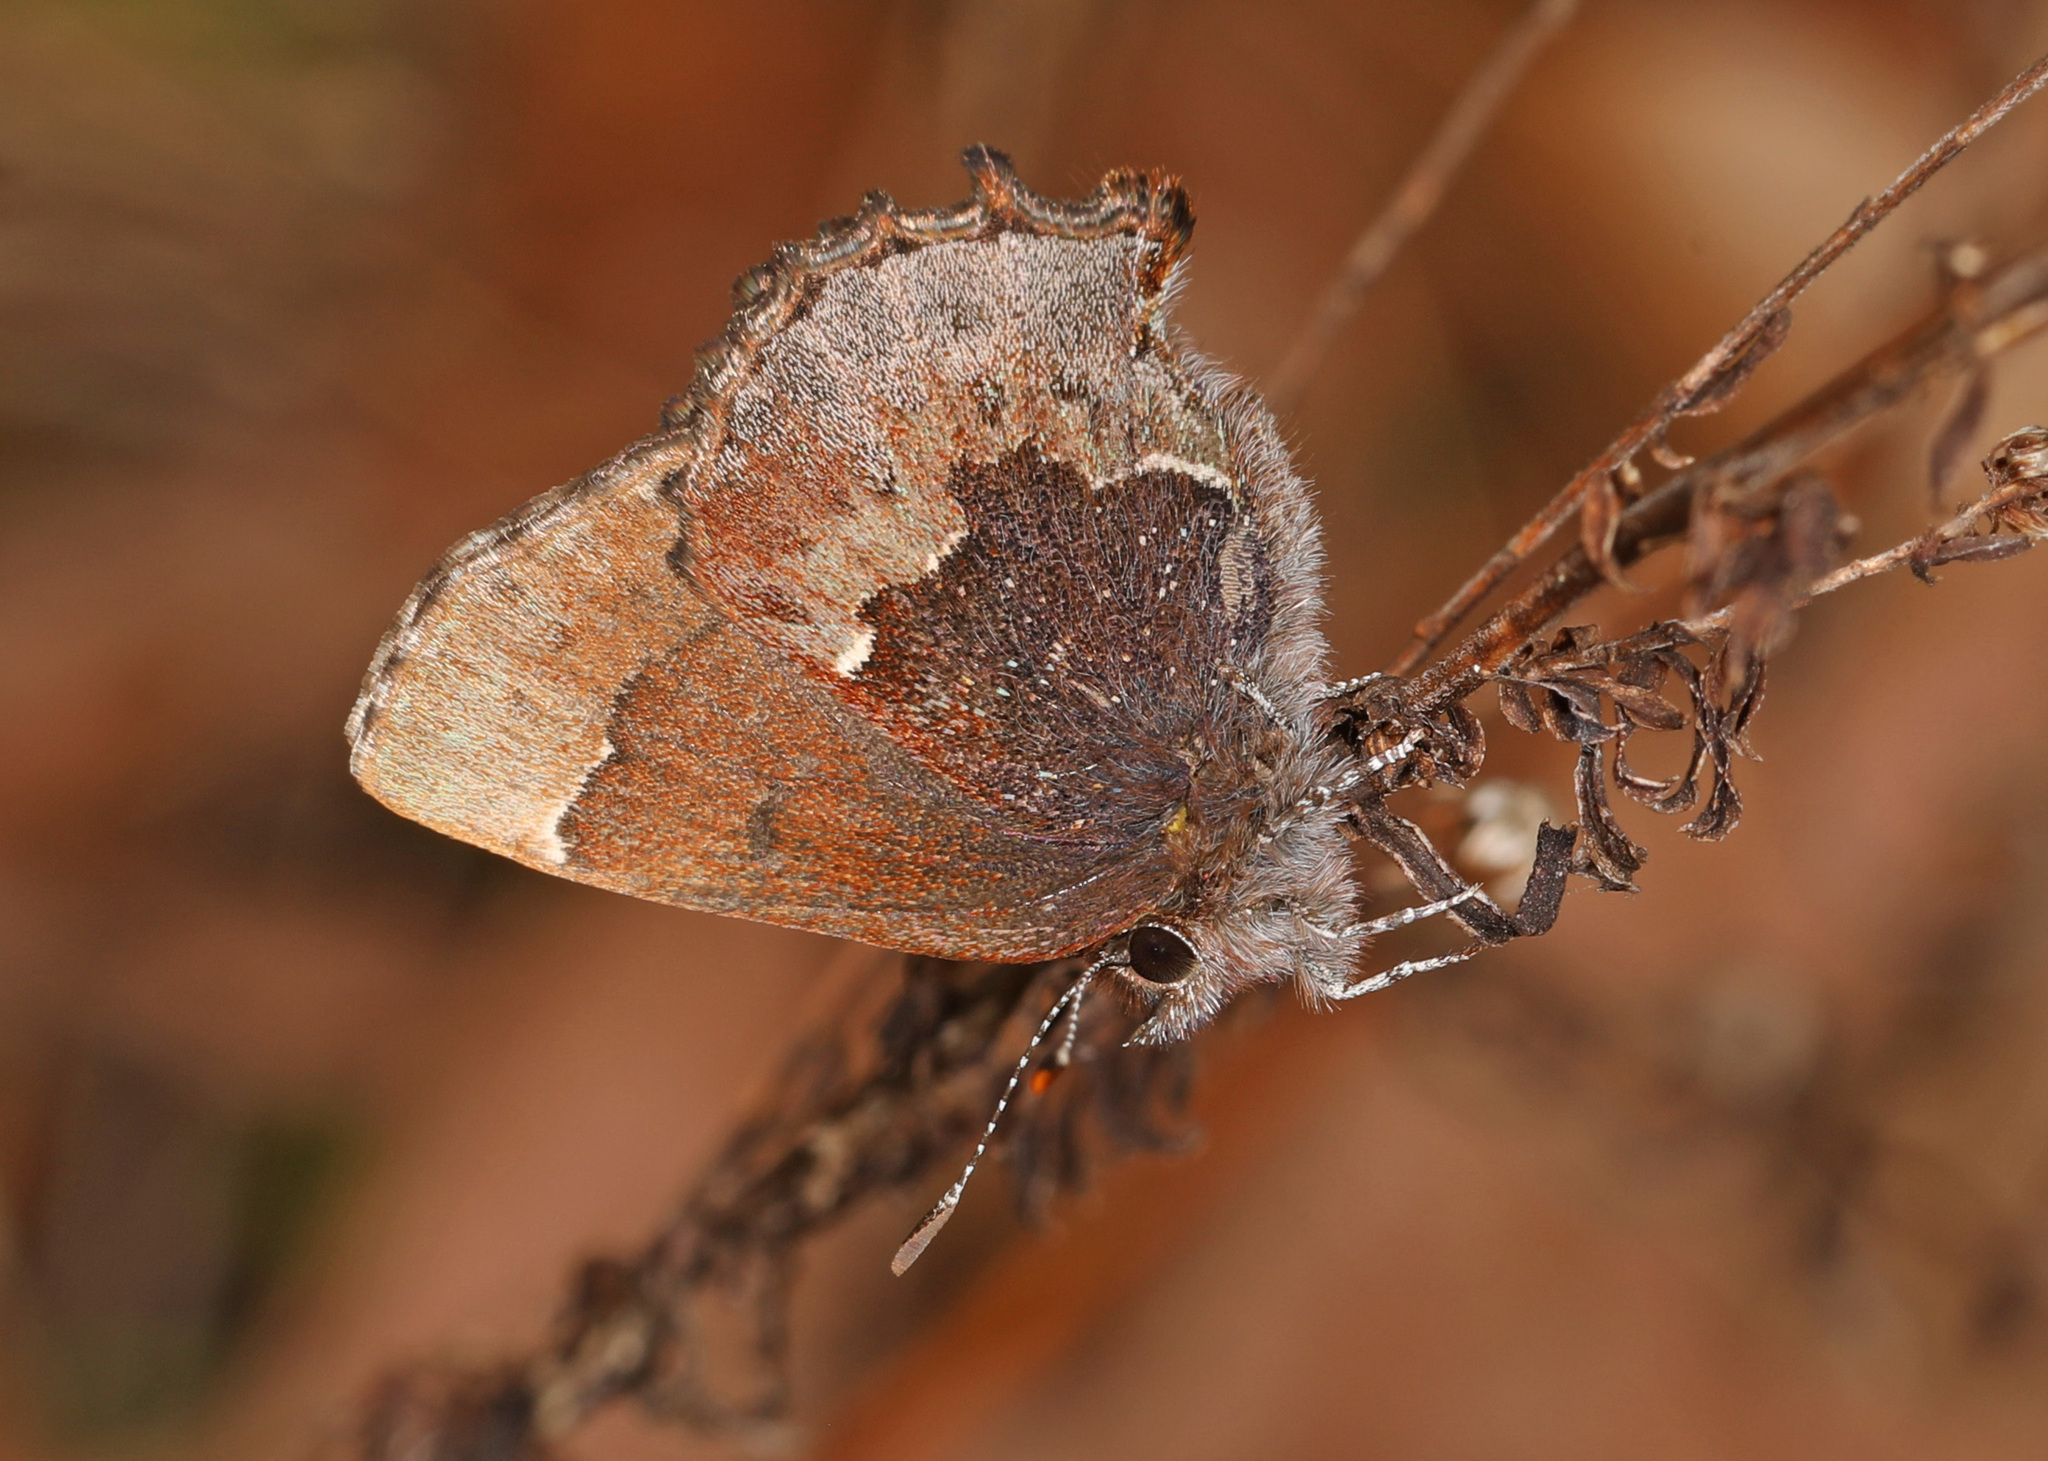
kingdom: Animalia
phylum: Arthropoda
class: Insecta
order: Lepidoptera
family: Lycaenidae
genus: Incisalia
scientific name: Incisalia henrici
